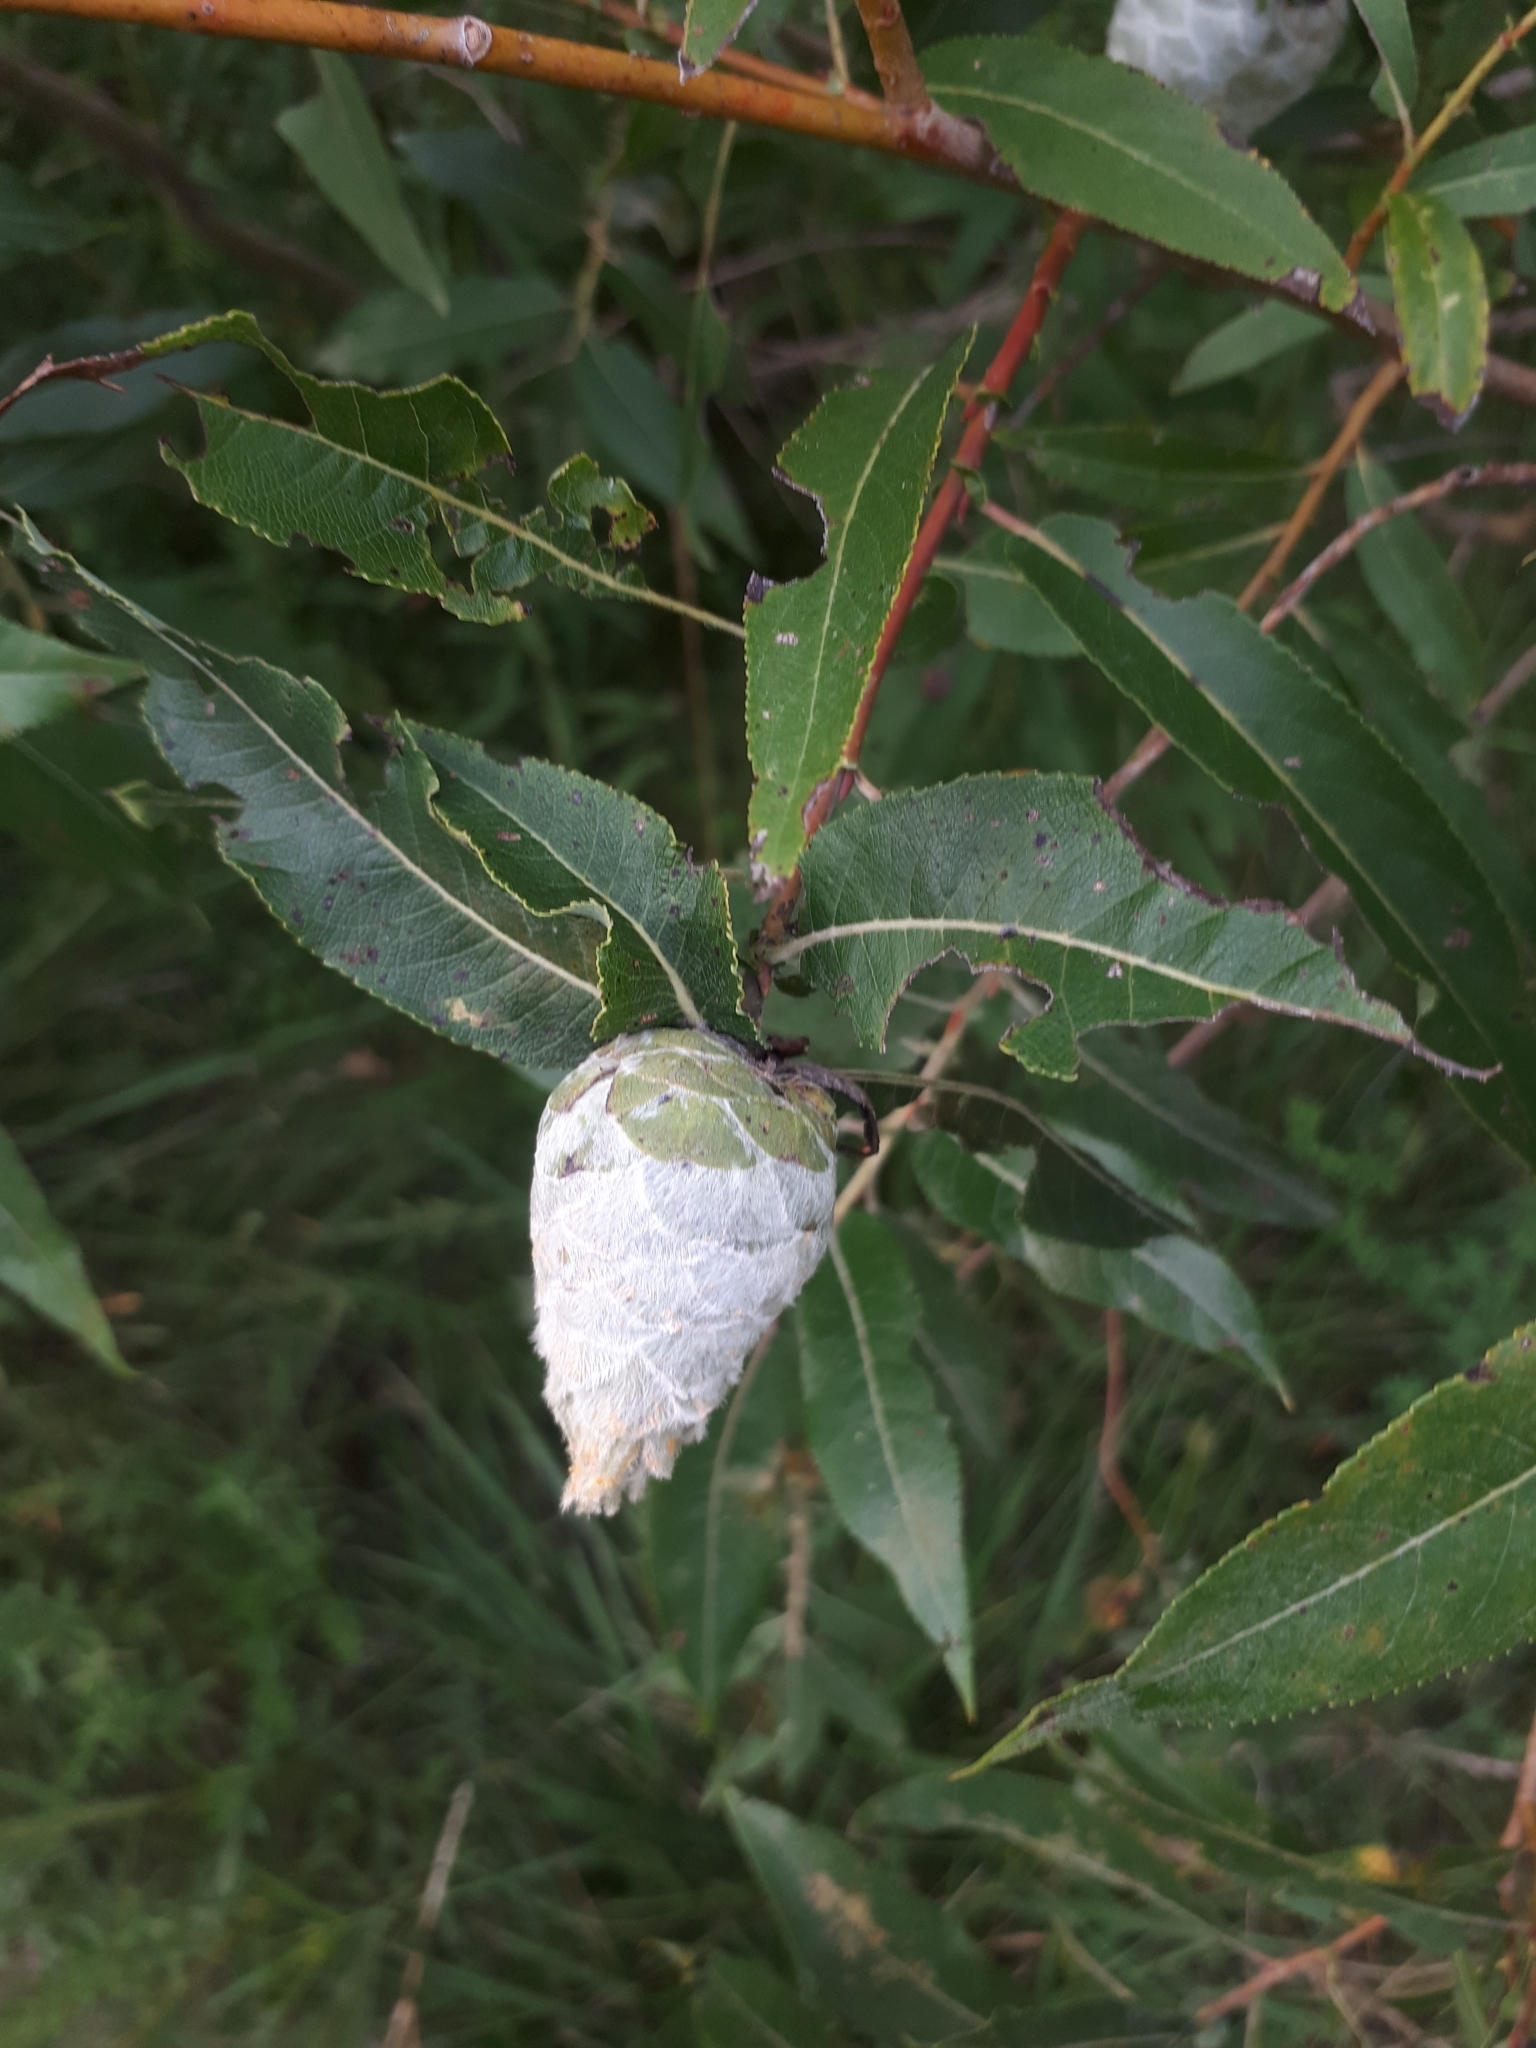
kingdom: Animalia
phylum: Arthropoda
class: Insecta
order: Diptera
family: Cecidomyiidae
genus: Rabdophaga
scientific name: Rabdophaga strobiloides
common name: Willow pinecone gall midge
